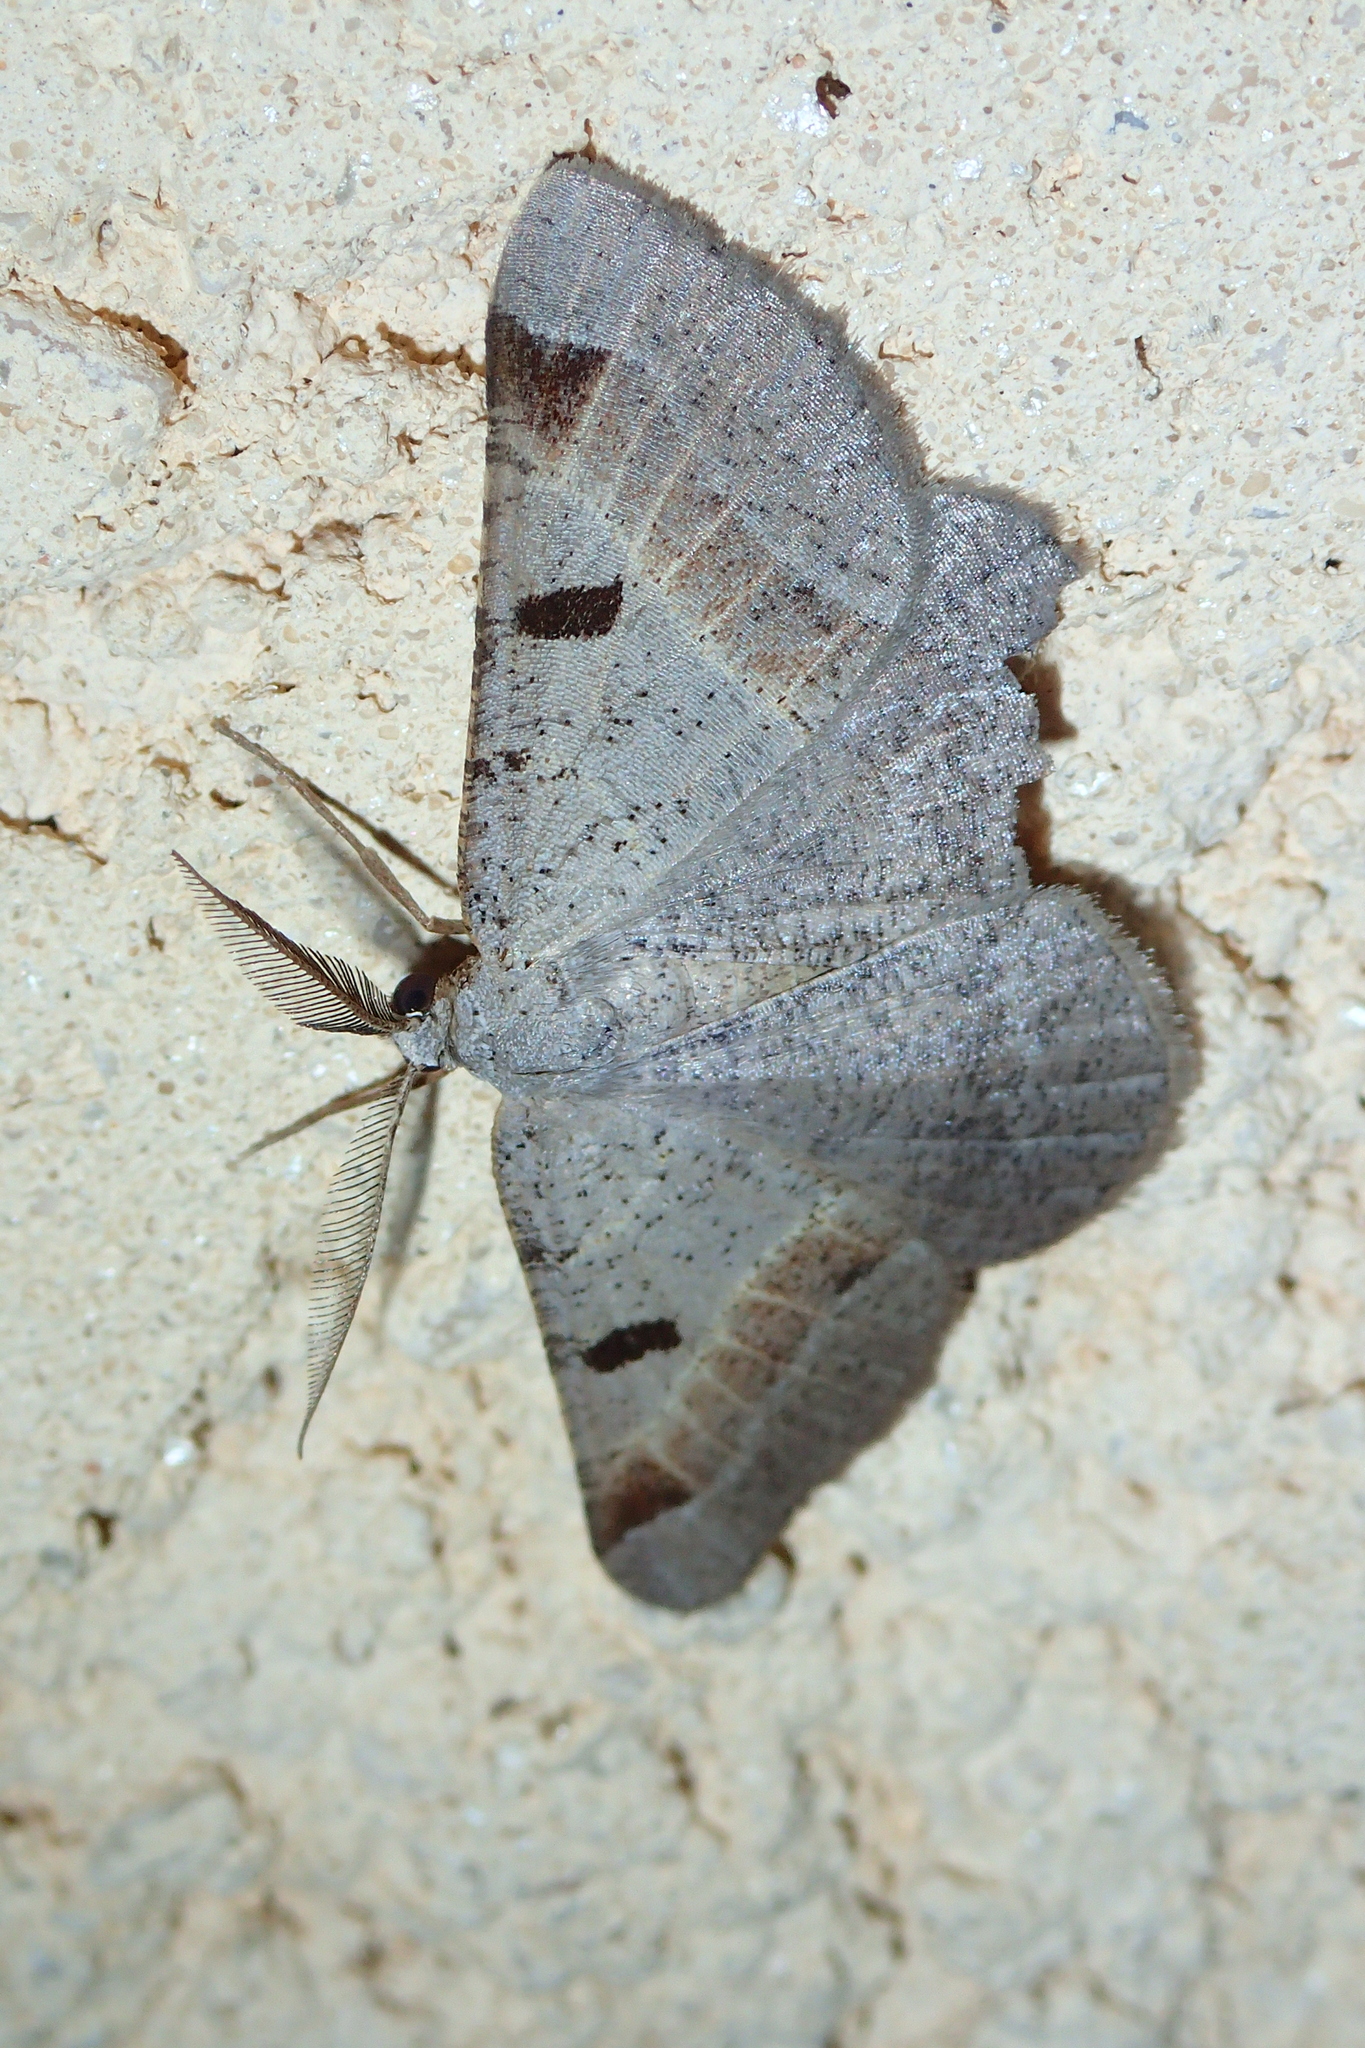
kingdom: Animalia
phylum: Arthropoda
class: Insecta
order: Lepidoptera
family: Geometridae
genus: Itame
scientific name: Itame vincularia
